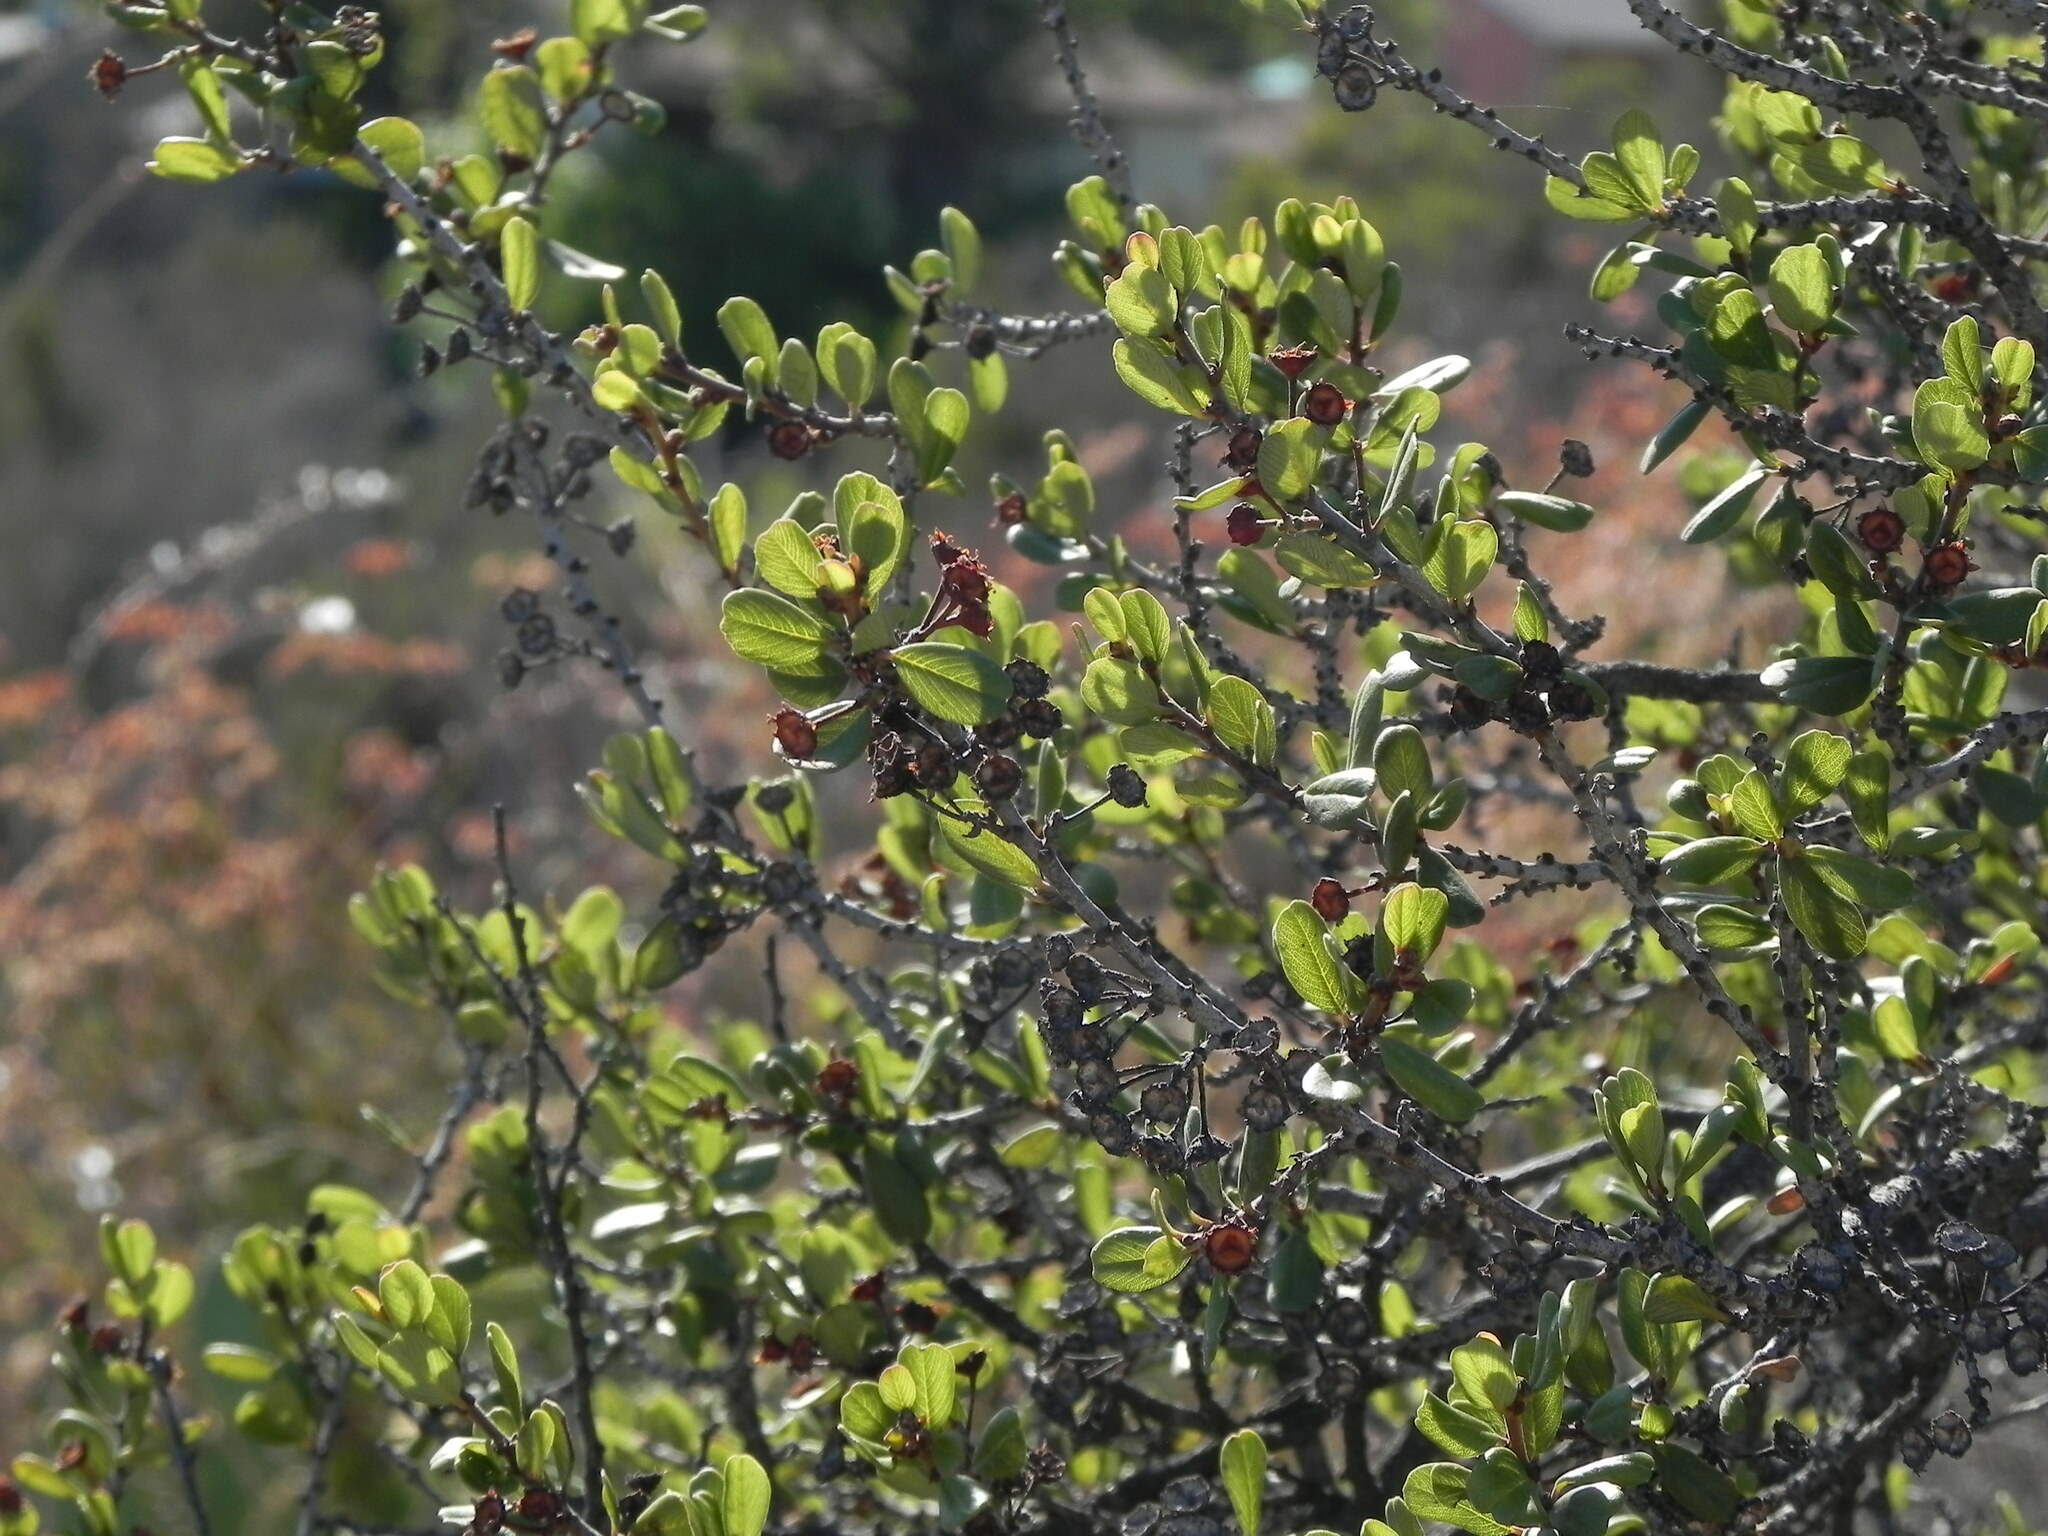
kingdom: Plantae
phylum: Tracheophyta
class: Magnoliopsida
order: Rosales
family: Rhamnaceae
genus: Ceanothus
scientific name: Ceanothus verrucosus
